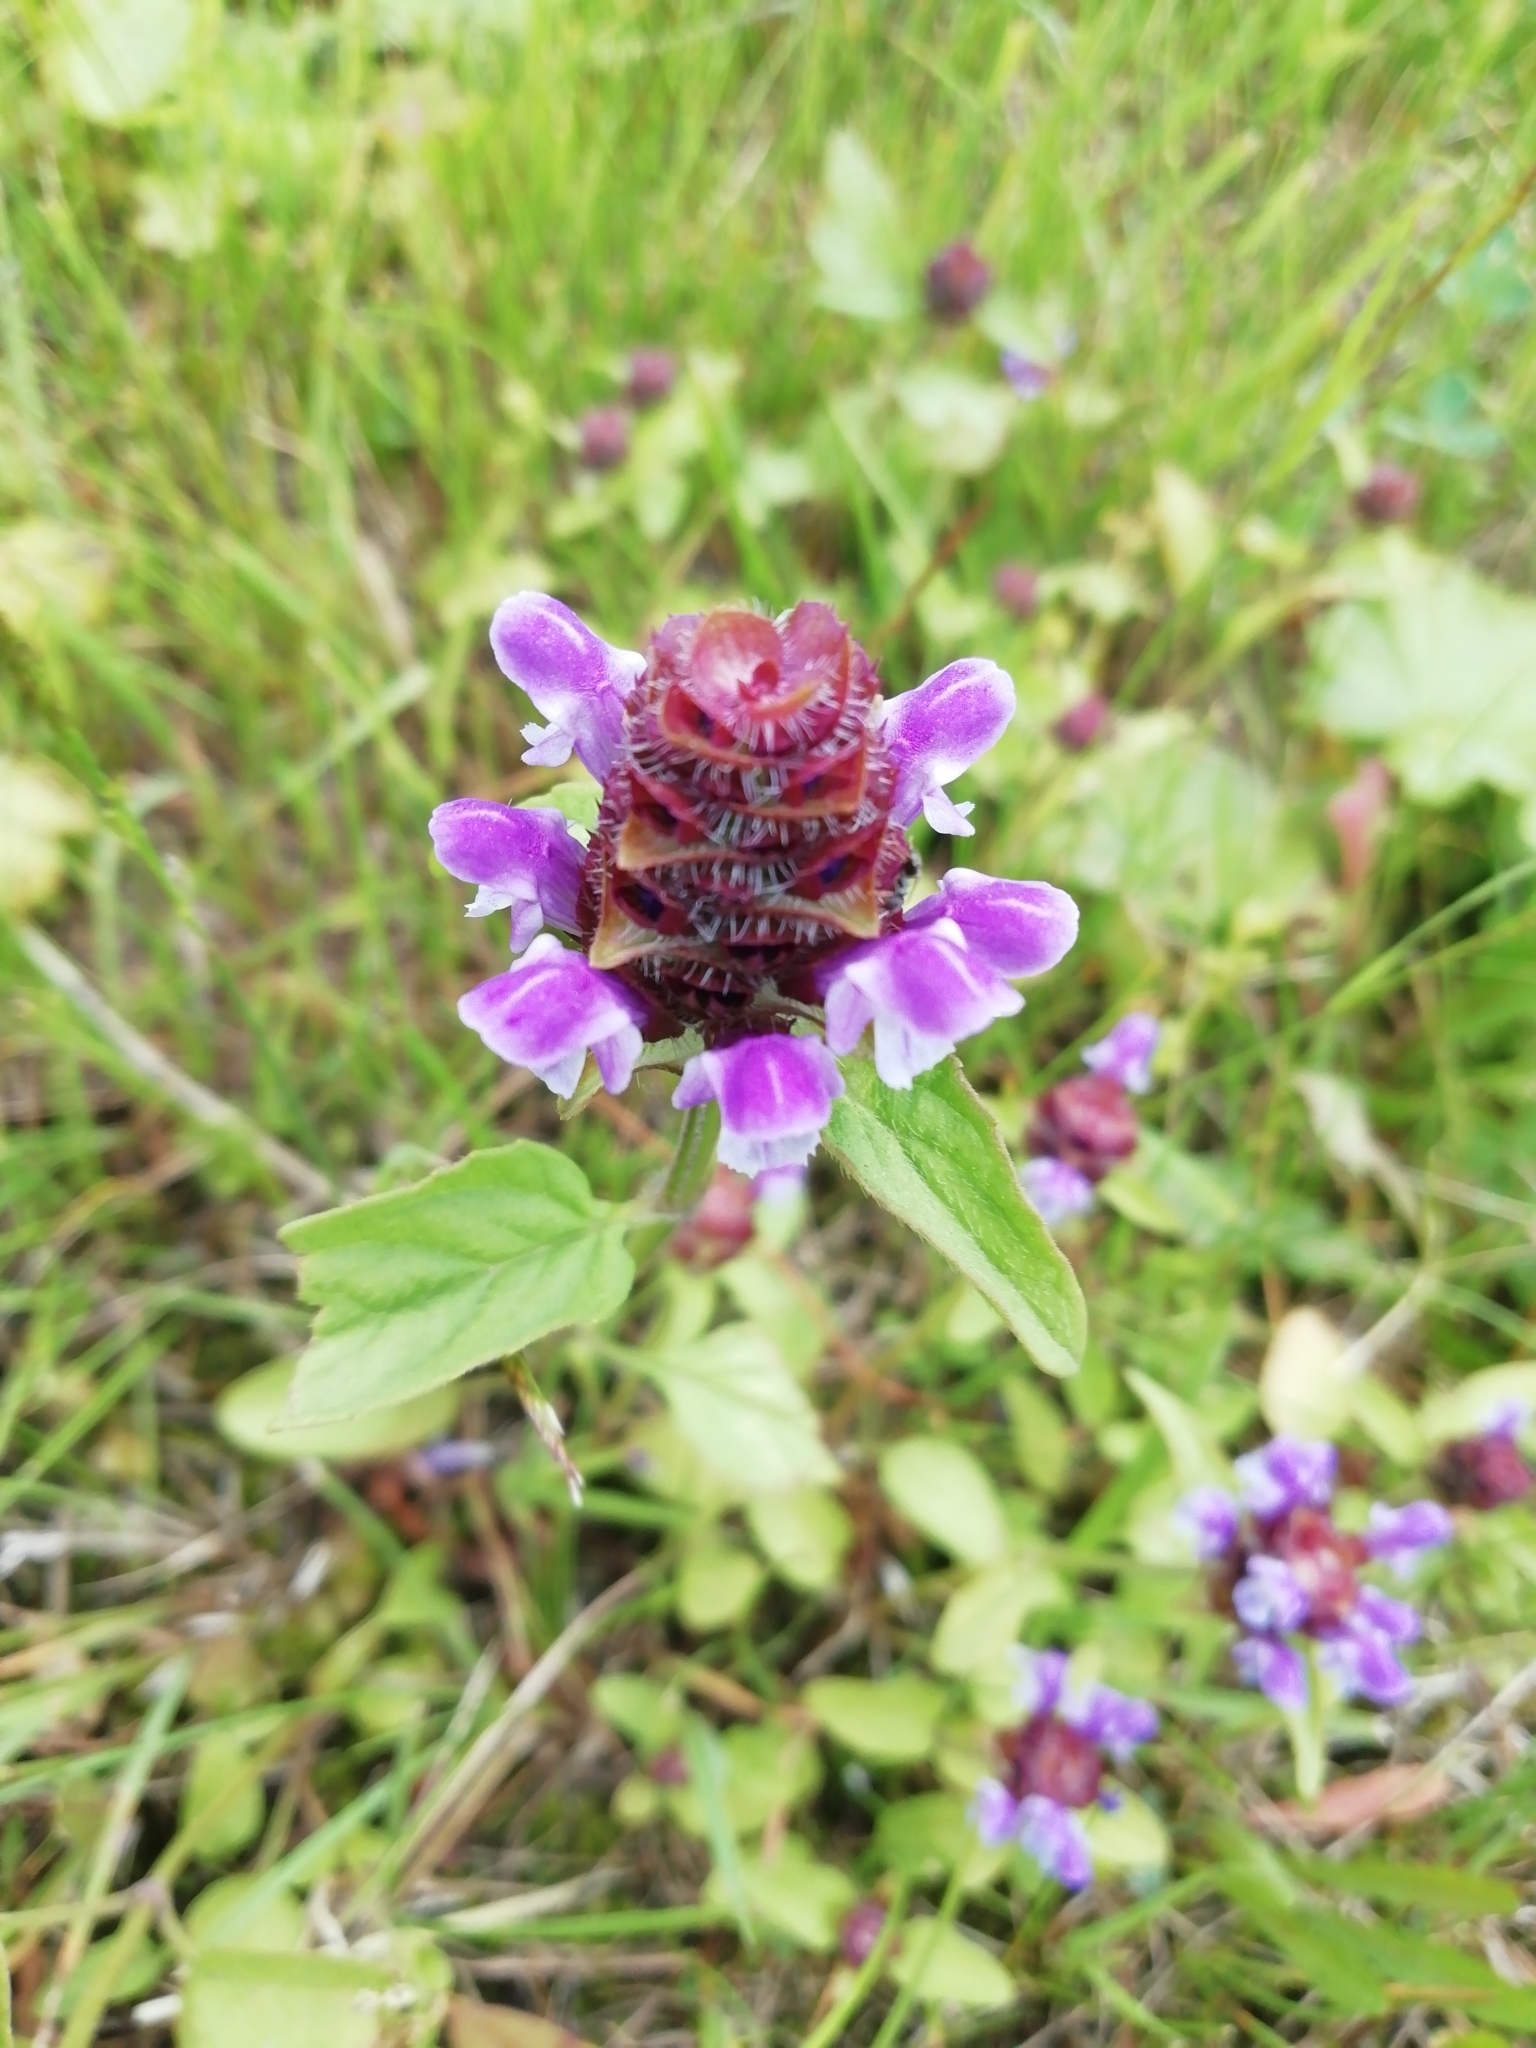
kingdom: Plantae
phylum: Tracheophyta
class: Magnoliopsida
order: Lamiales
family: Lamiaceae
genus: Prunella
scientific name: Prunella vulgaris
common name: Heal-all
